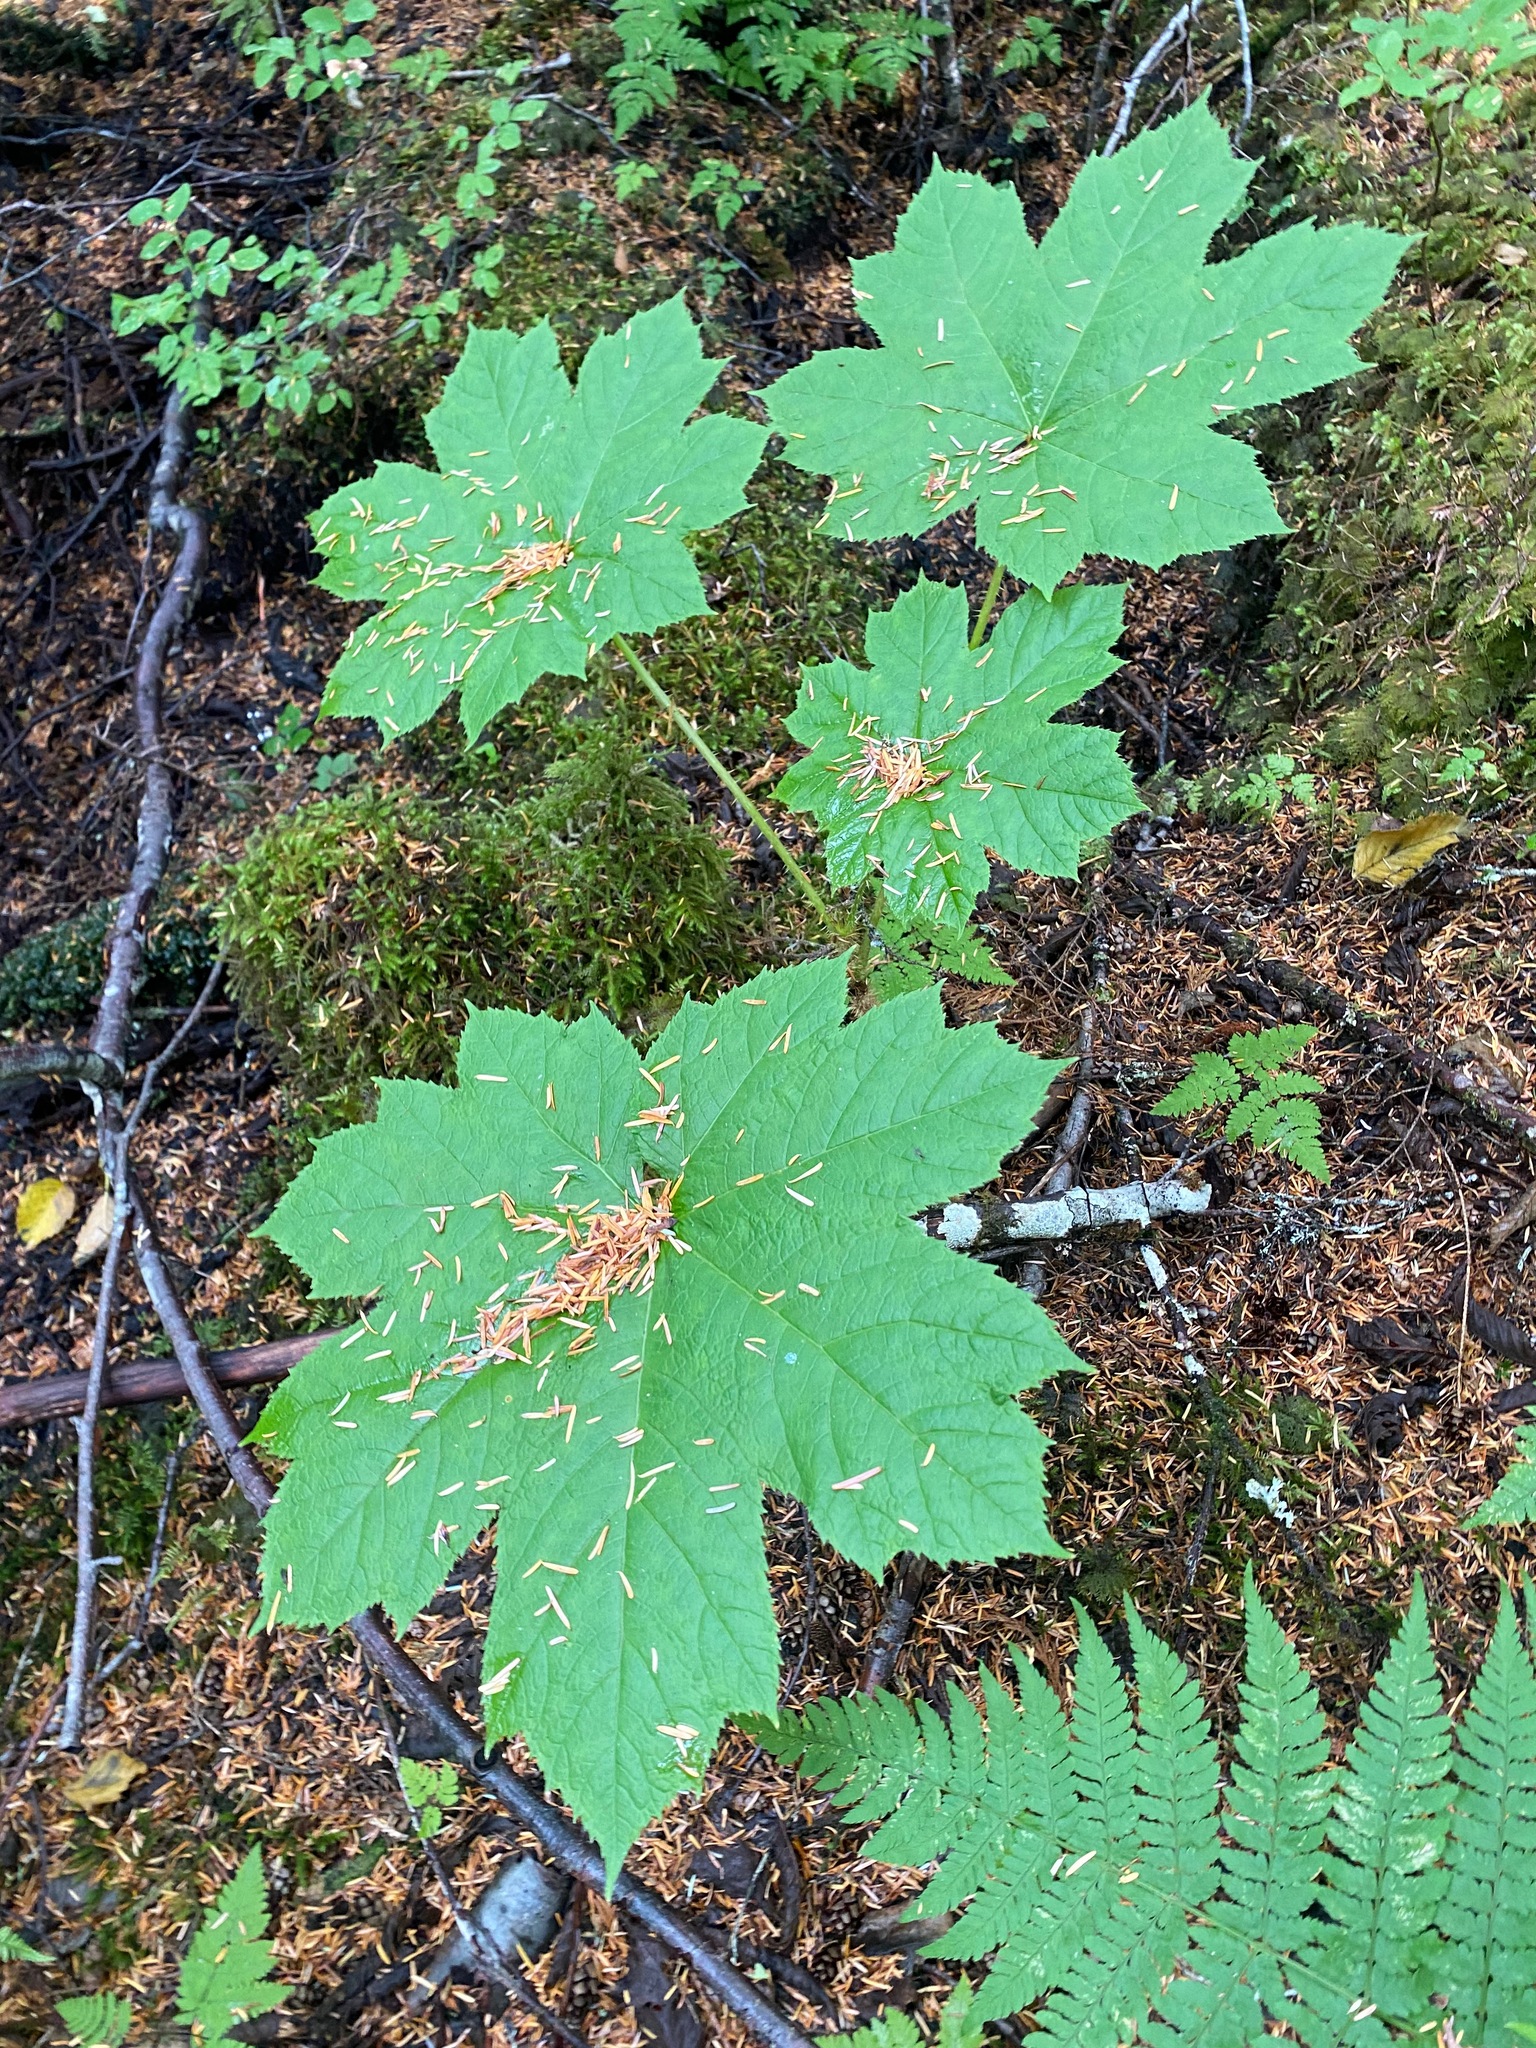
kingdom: Plantae
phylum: Tracheophyta
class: Magnoliopsida
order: Apiales
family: Araliaceae
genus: Oplopanax
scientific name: Oplopanax horridus
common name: Devil's walking-stick
